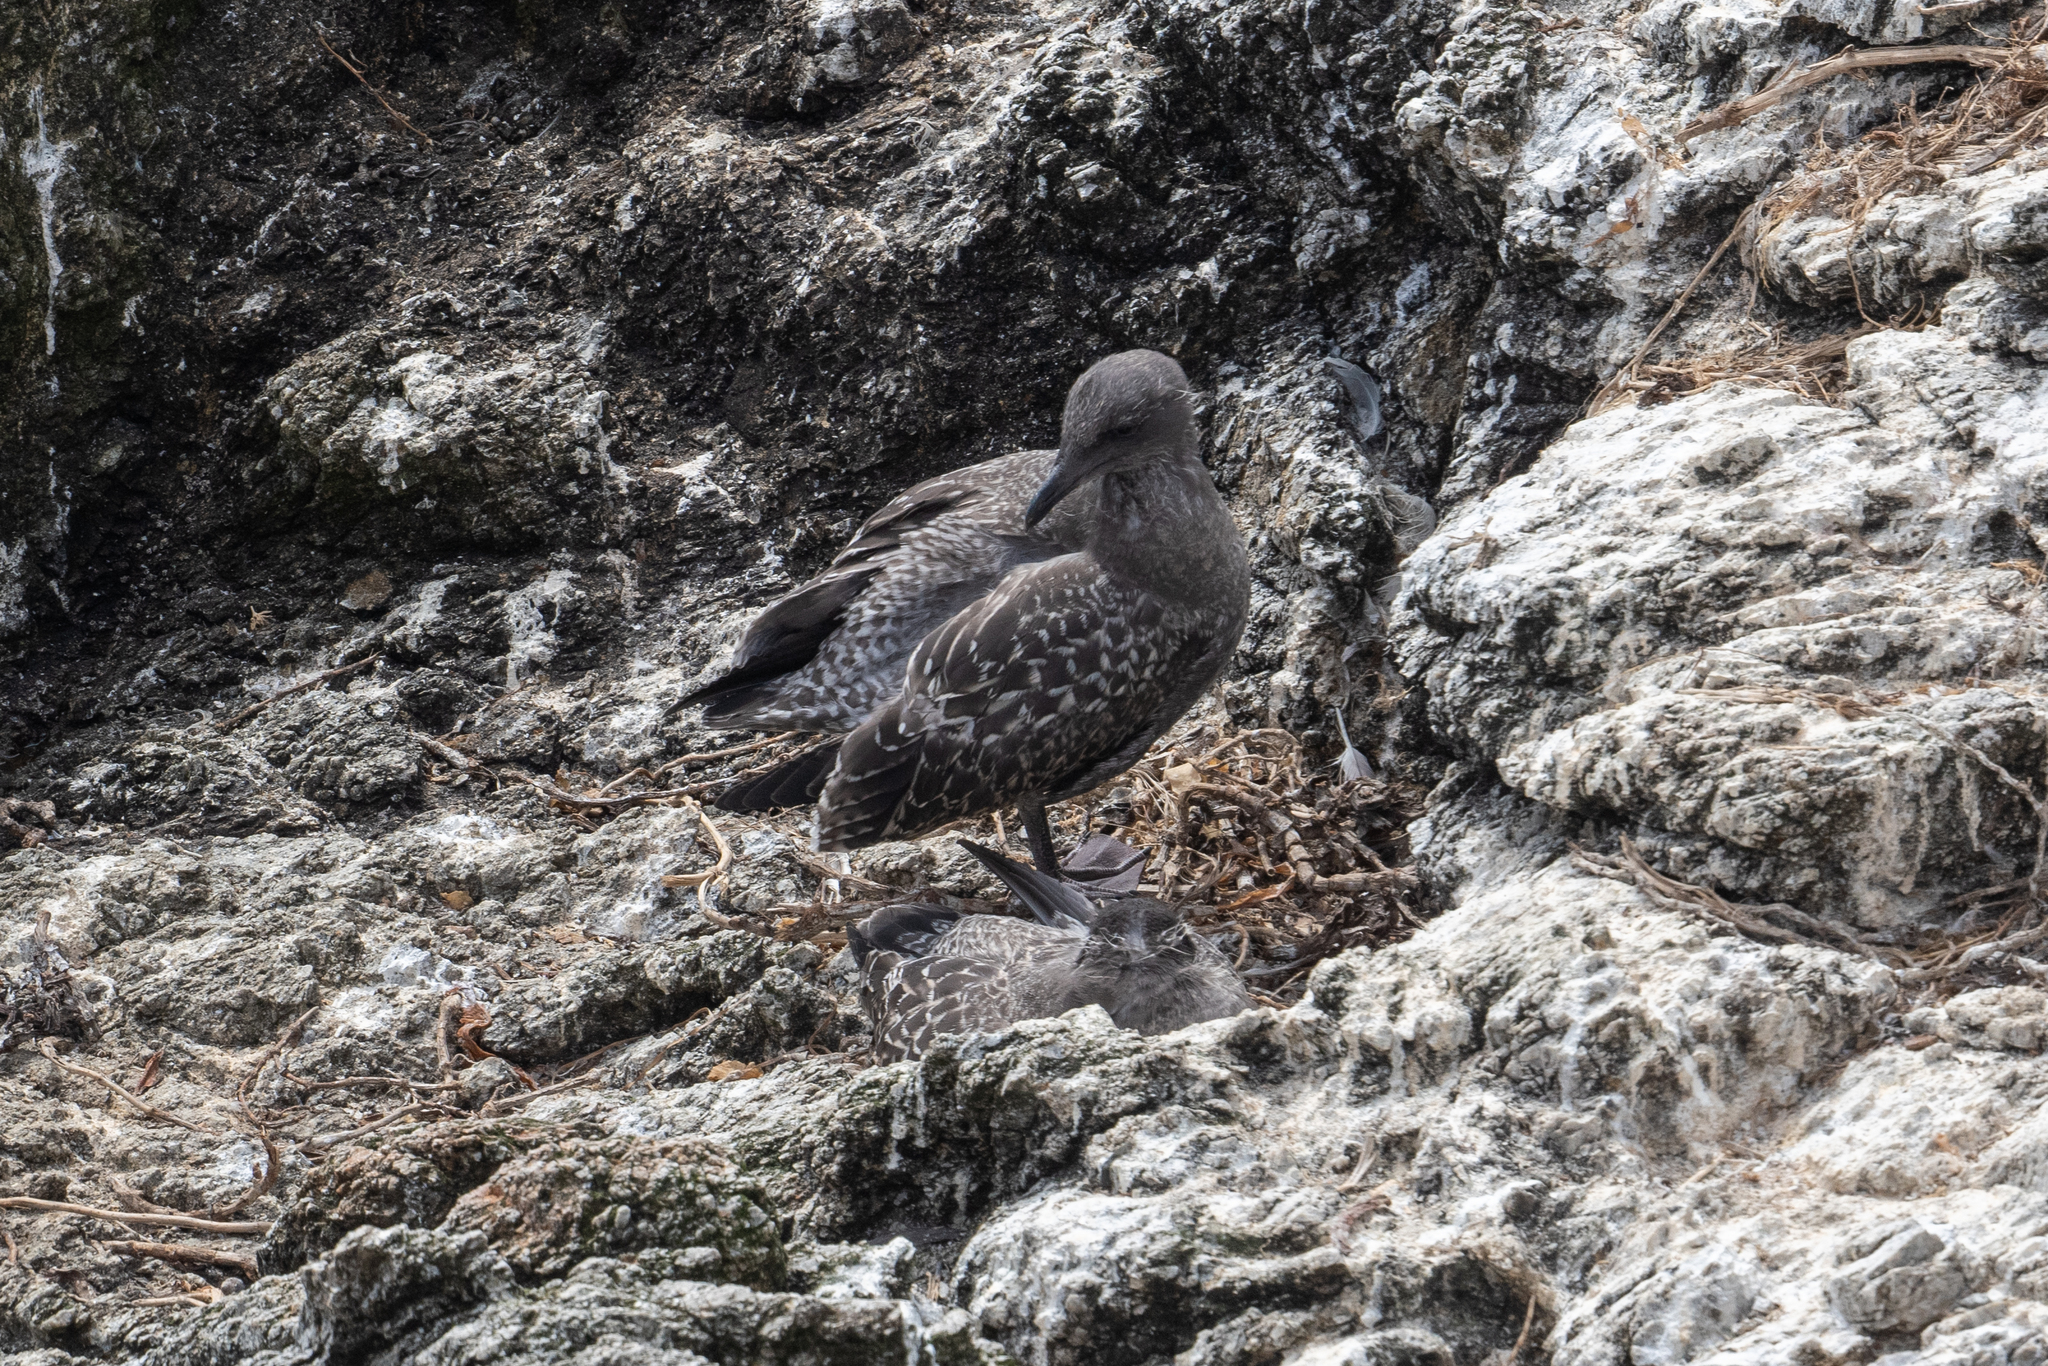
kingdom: Animalia
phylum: Chordata
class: Aves
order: Charadriiformes
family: Laridae
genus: Larus
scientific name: Larus occidentalis
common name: Western gull
